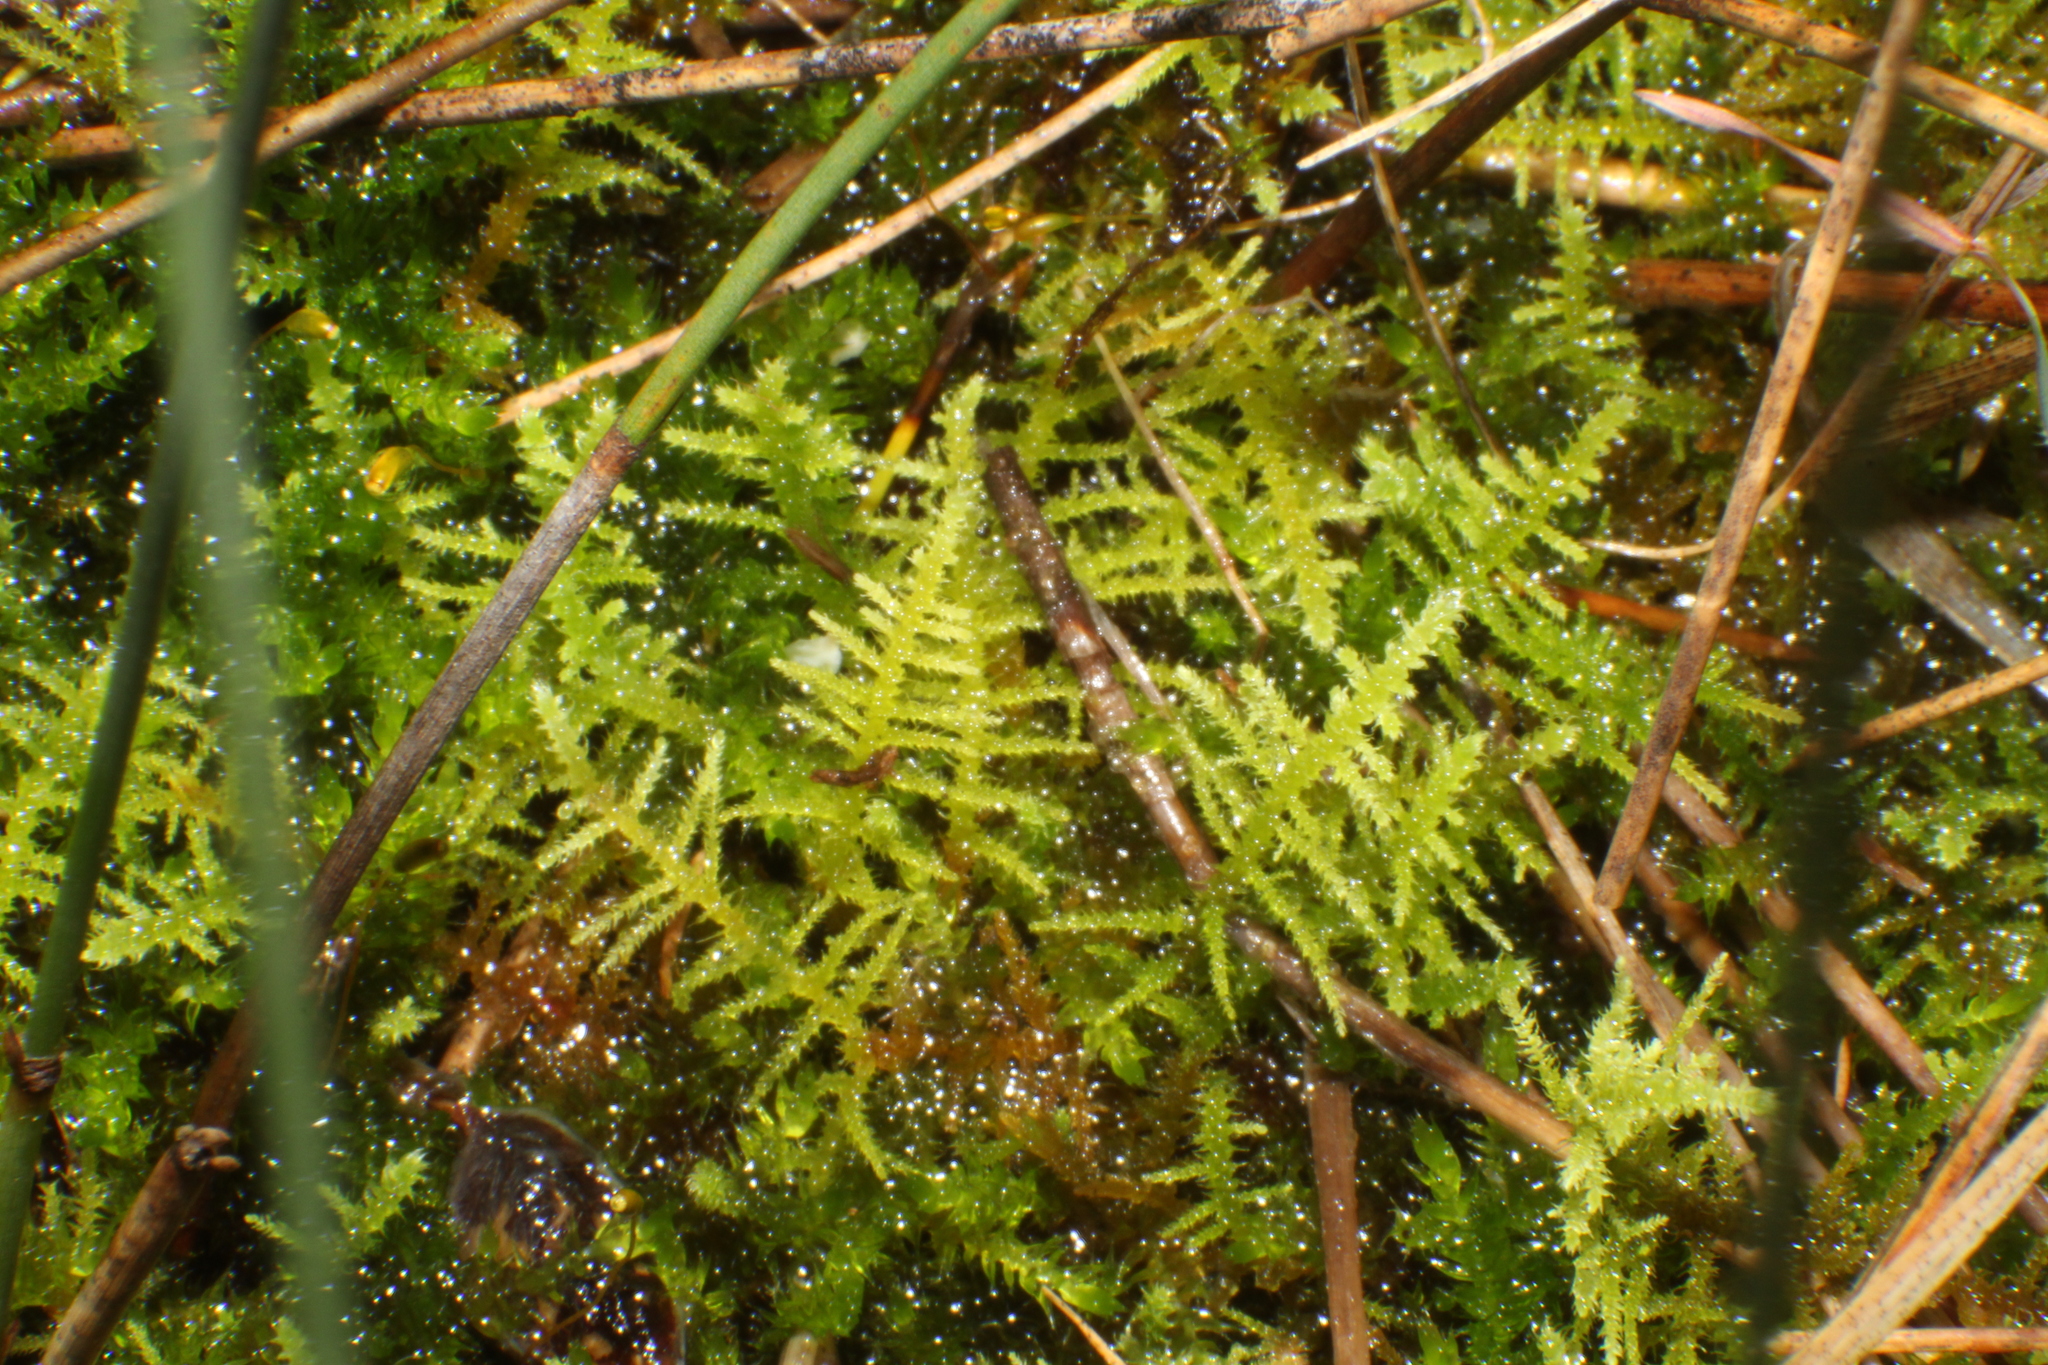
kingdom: Plantae
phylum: Bryophyta
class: Bryopsida
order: Hypnales
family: Thuidiaceae
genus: Thuidiopsis
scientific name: Thuidiopsis sparsa
